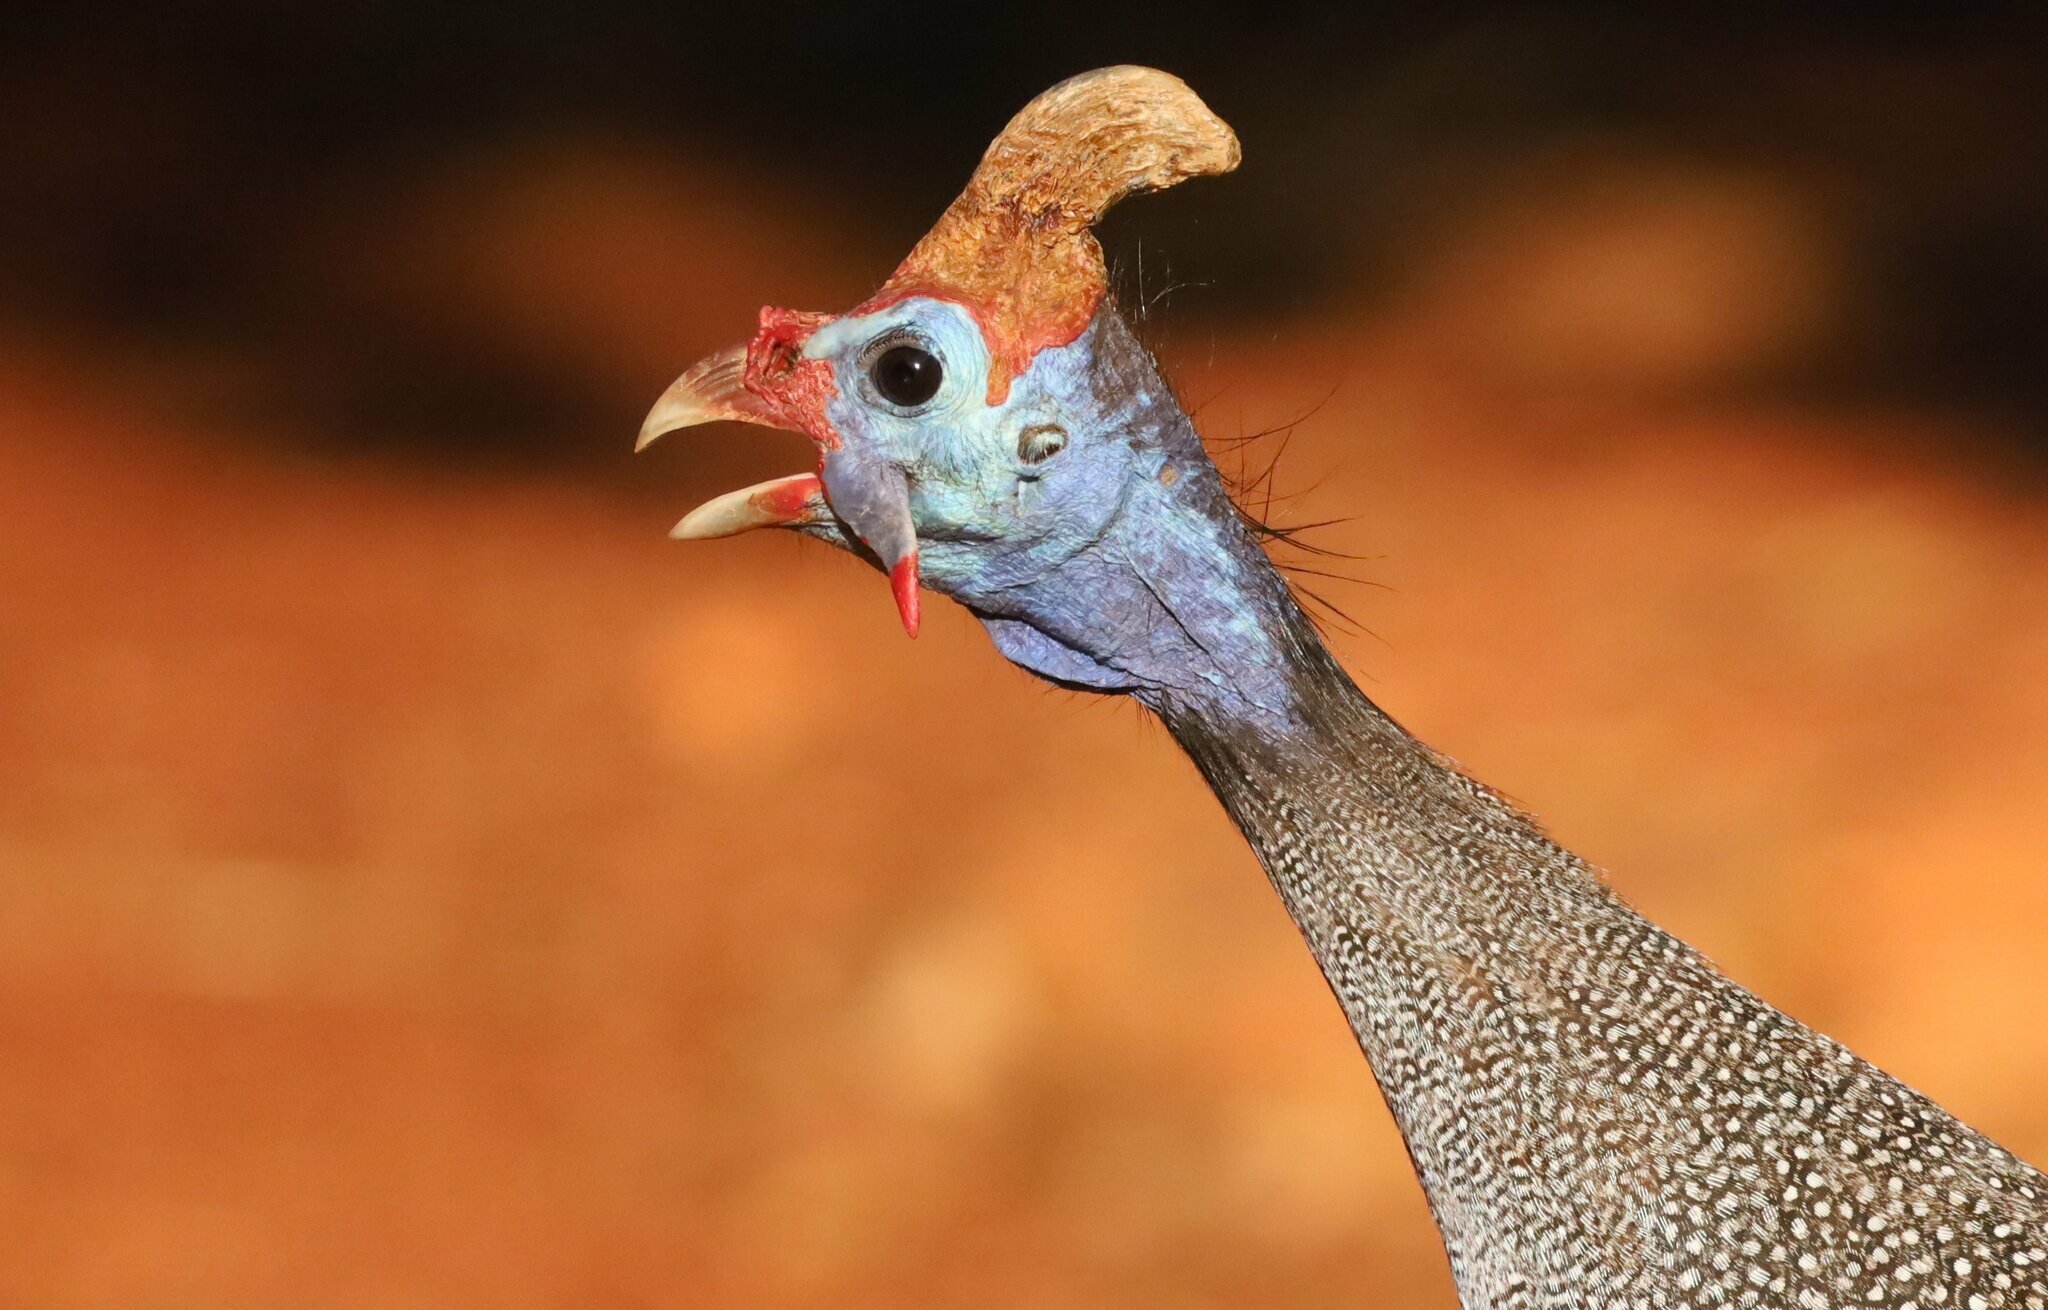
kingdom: Animalia
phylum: Chordata
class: Aves
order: Galliformes
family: Numididae
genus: Numida
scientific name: Numida meleagris
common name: Helmeted guineafowl
